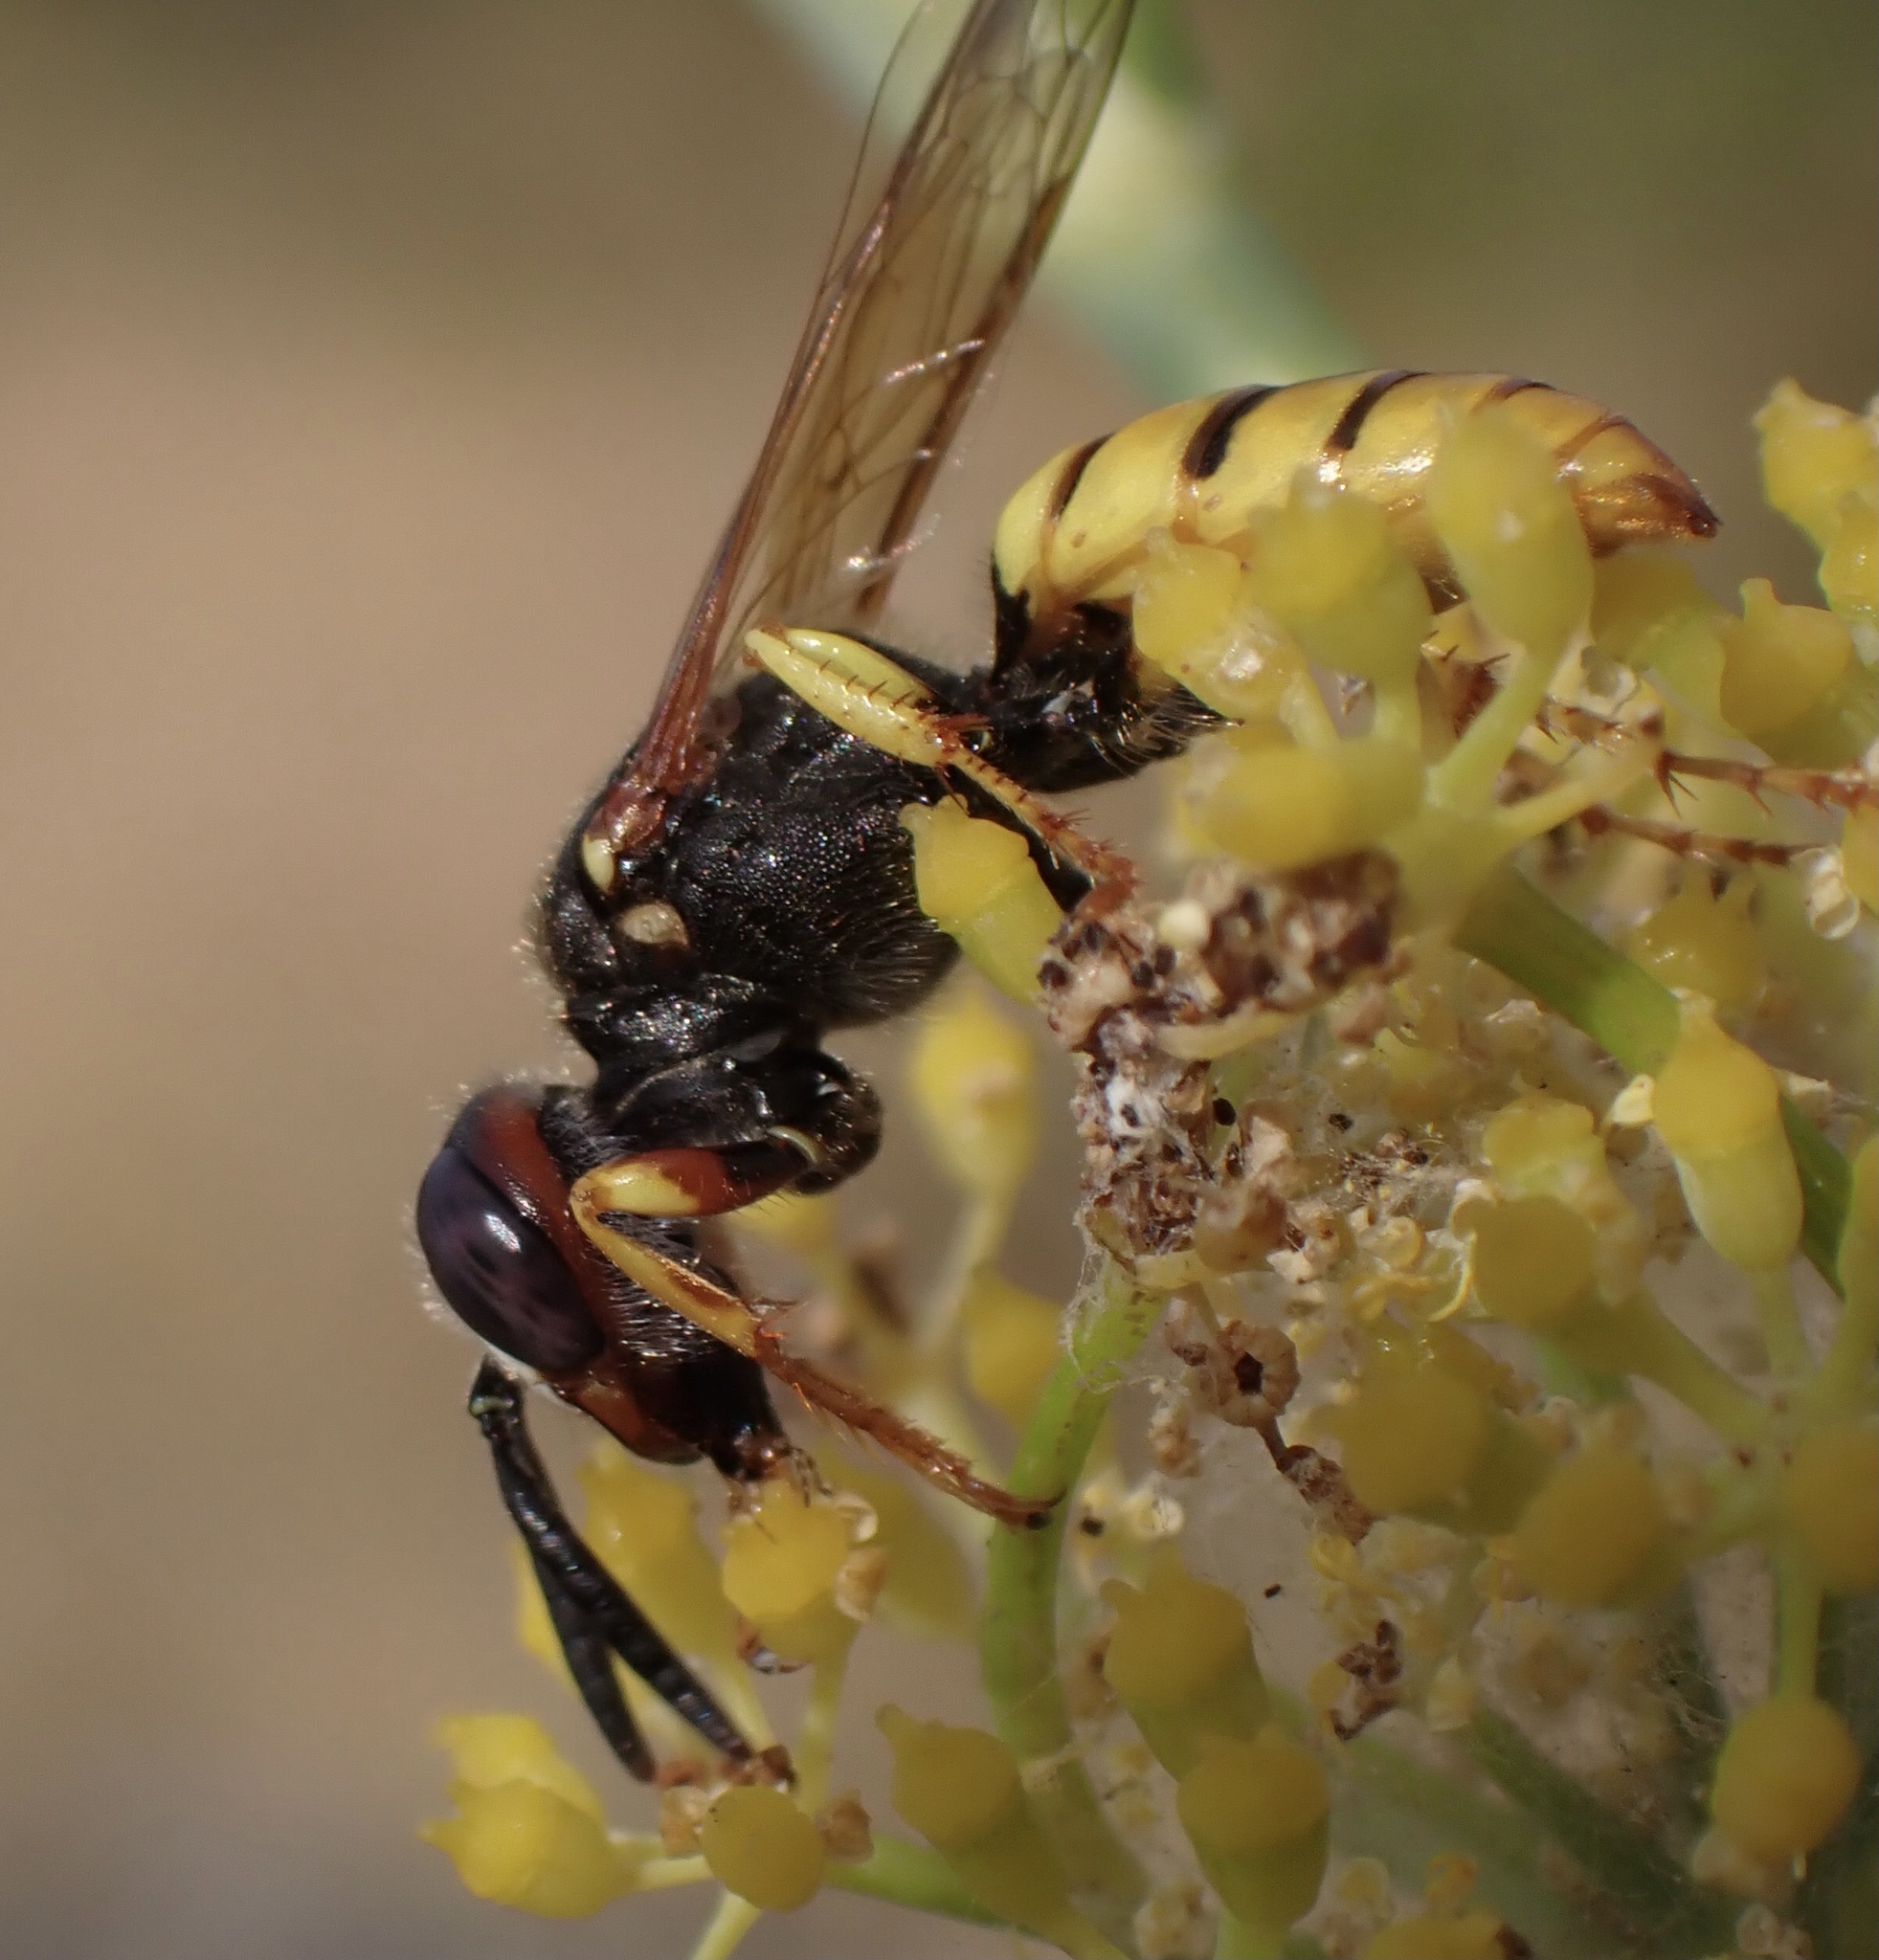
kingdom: Animalia
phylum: Arthropoda
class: Insecta
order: Hymenoptera
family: Crabronidae
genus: Philanthus
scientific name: Philanthus triangulum
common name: Bee wolf
